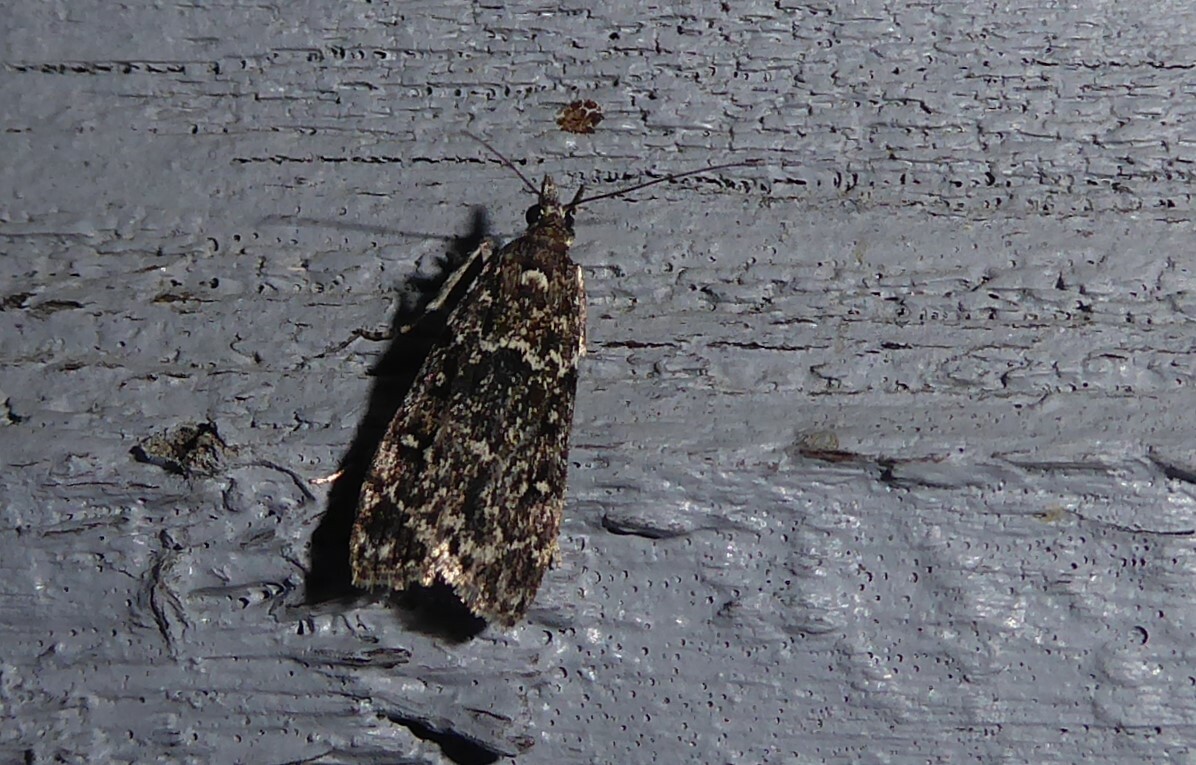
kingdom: Animalia
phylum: Arthropoda
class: Insecta
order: Lepidoptera
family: Crambidae
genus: Eudonia
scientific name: Eudonia philerga
